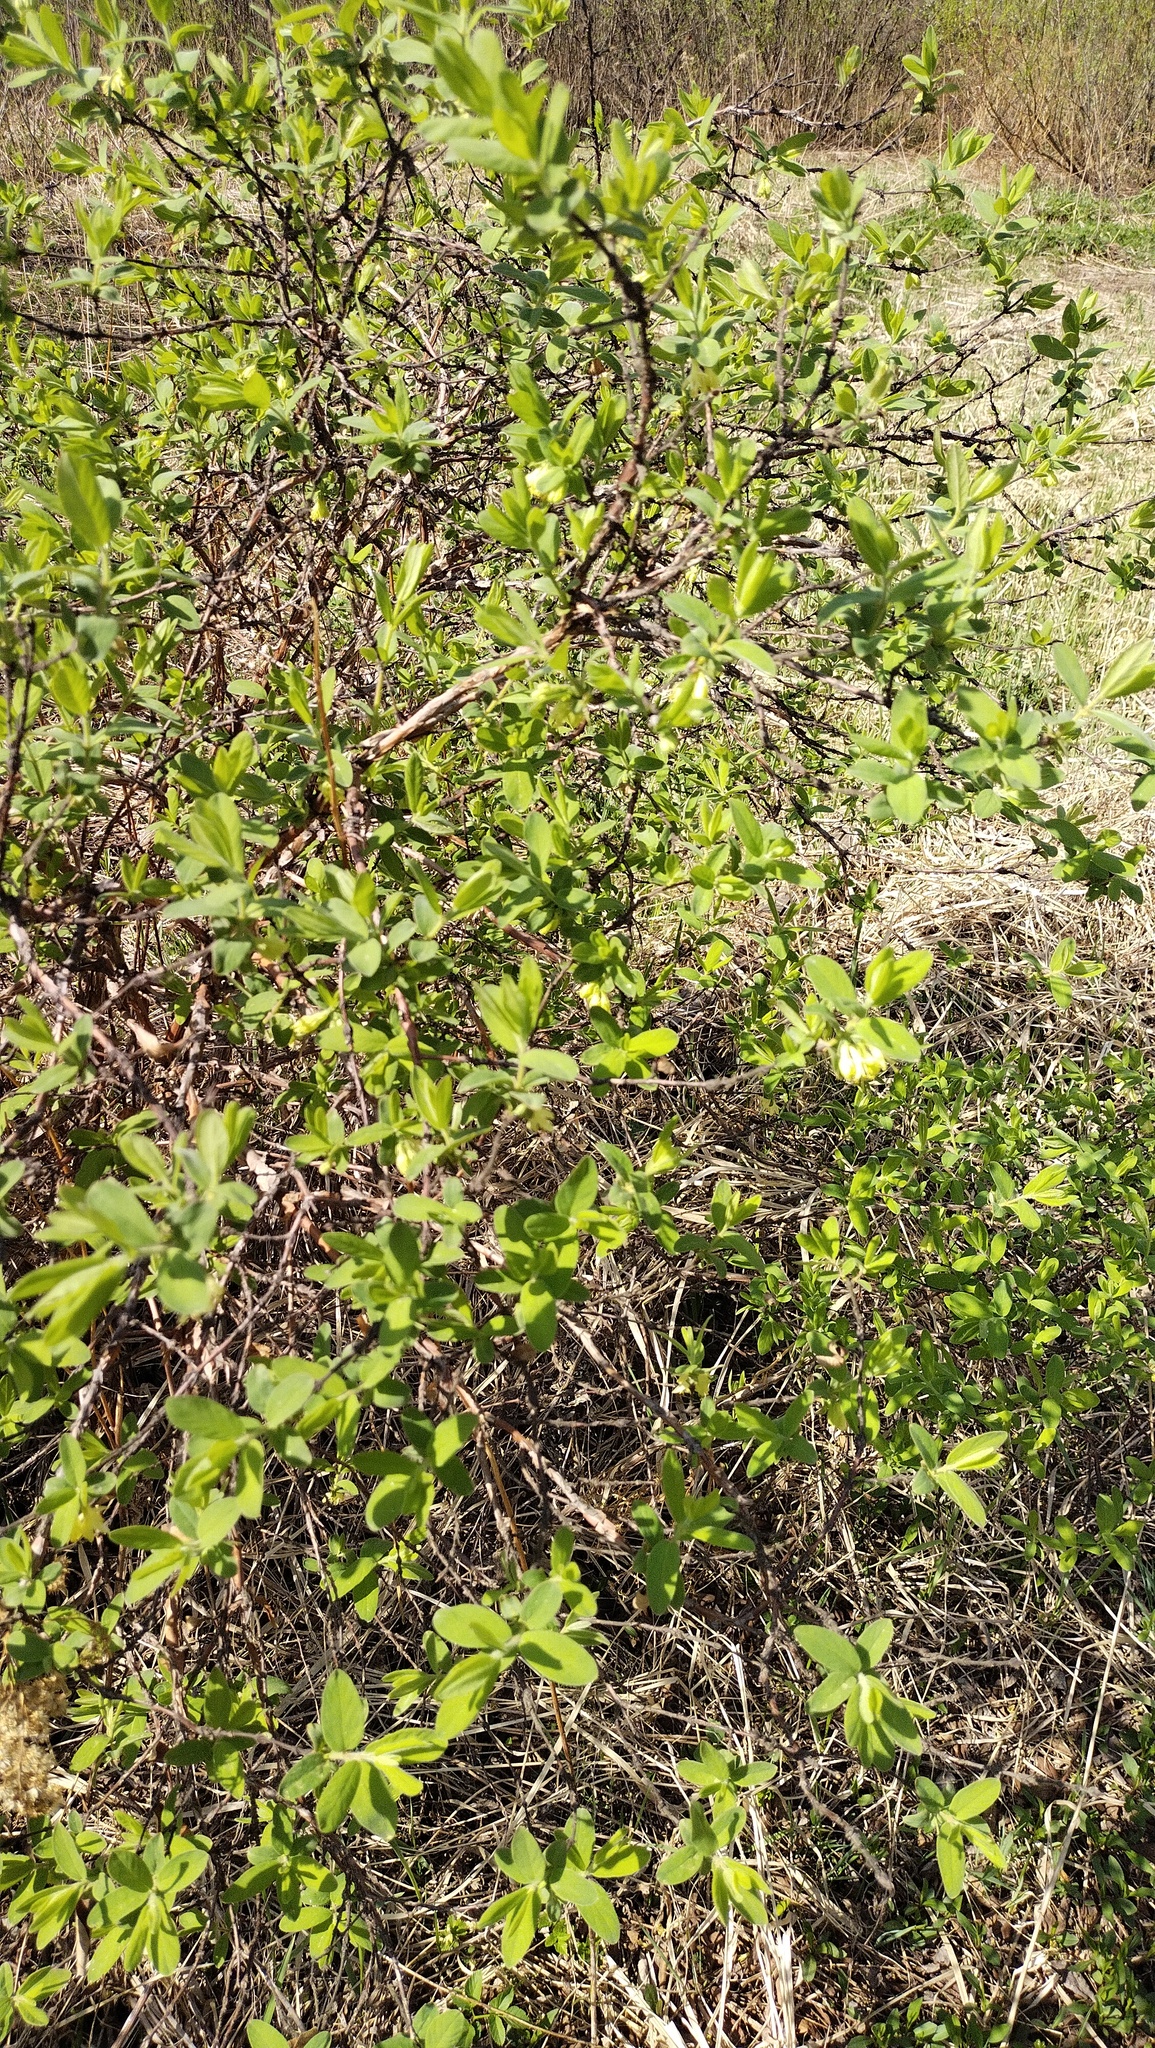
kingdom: Plantae
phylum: Tracheophyta
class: Magnoliopsida
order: Dipsacales
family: Caprifoliaceae
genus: Lonicera
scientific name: Lonicera caerulea
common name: Blue honeysuckle
